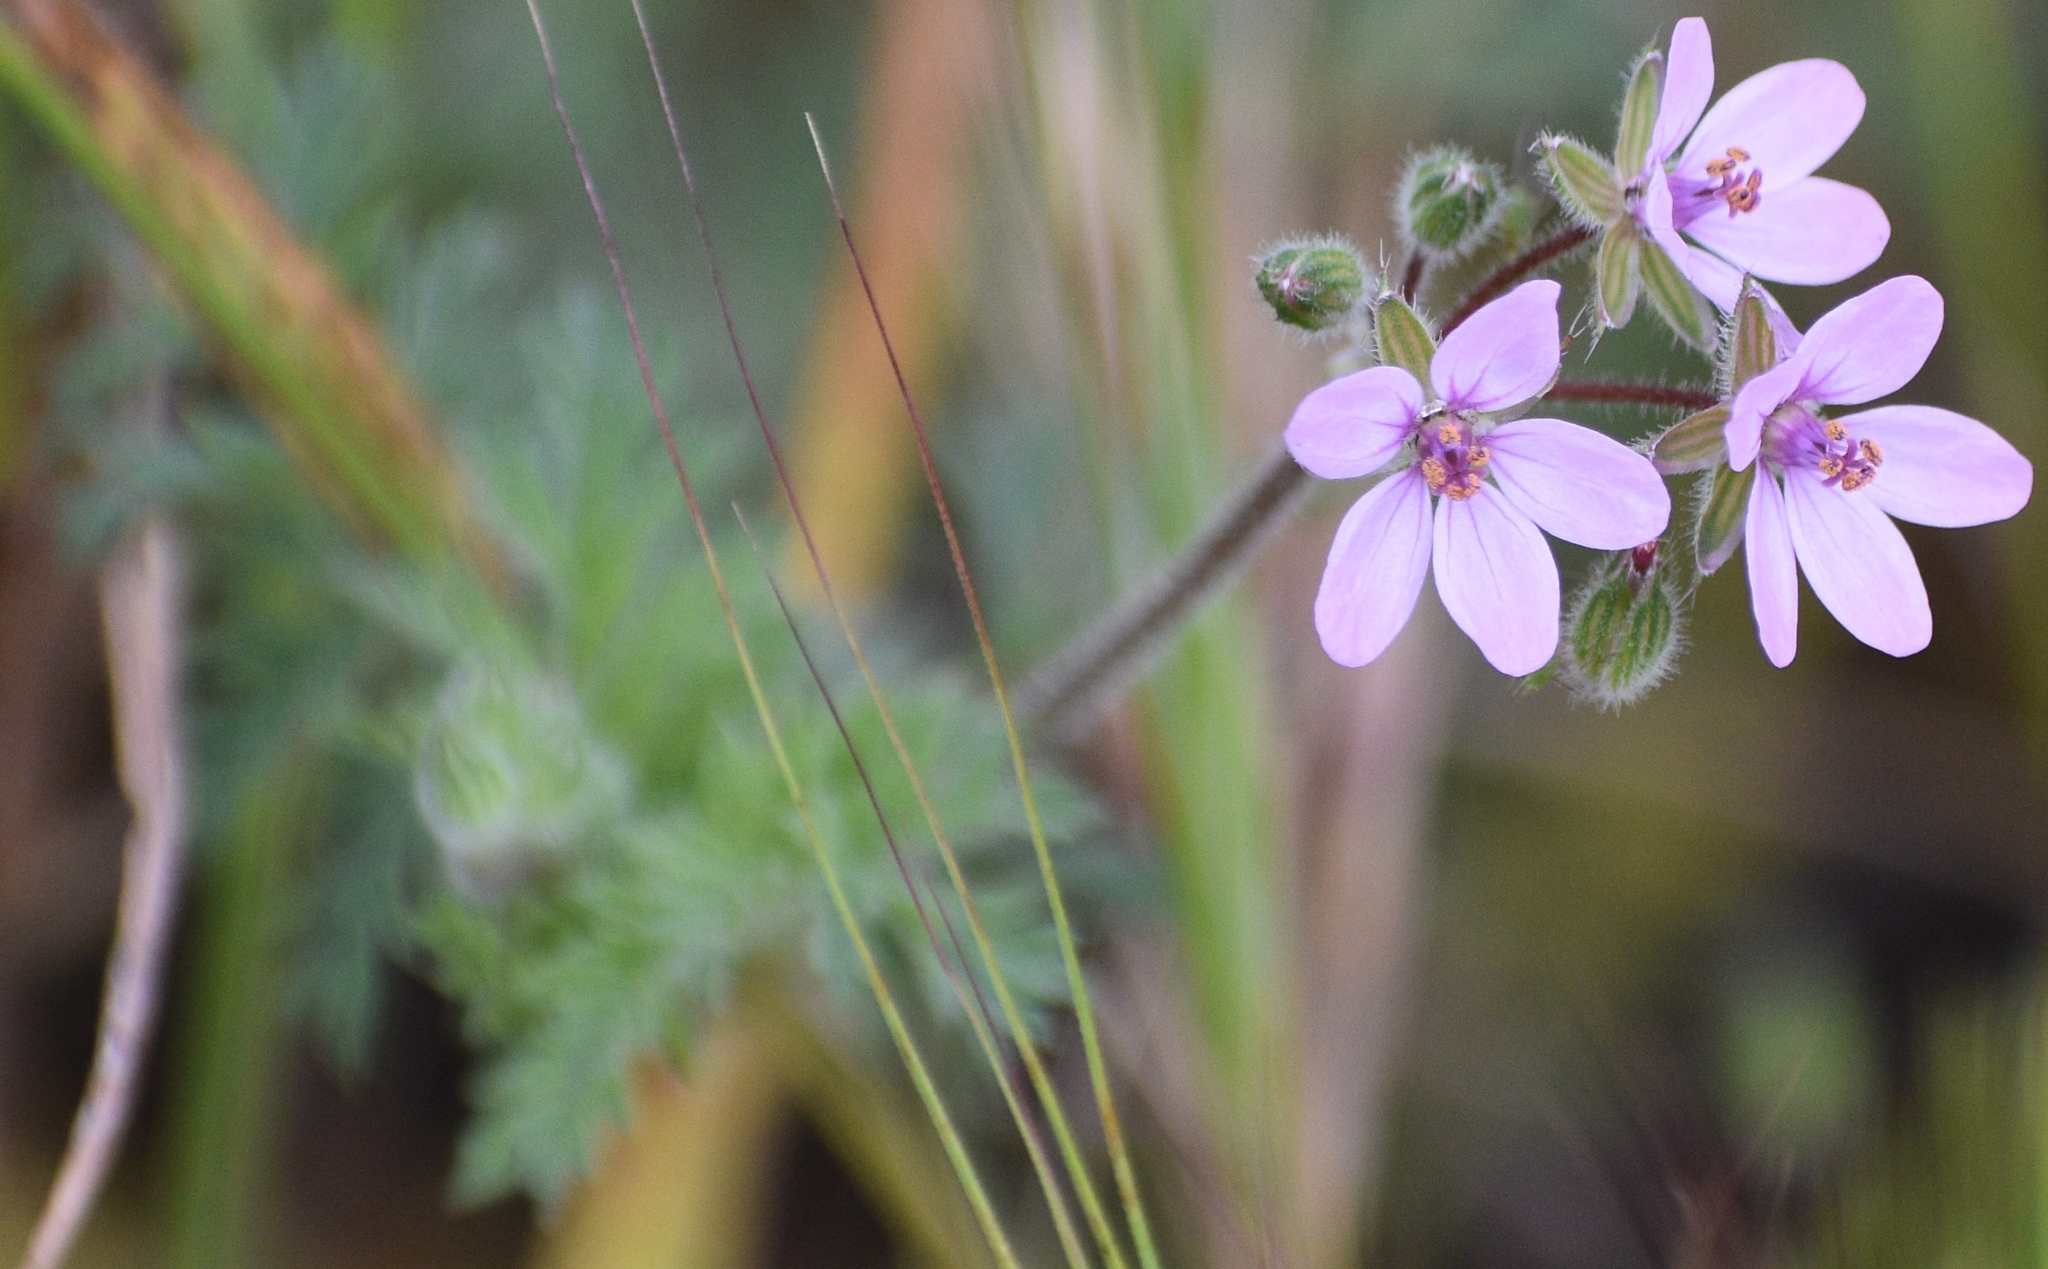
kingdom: Plantae
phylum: Tracheophyta
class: Magnoliopsida
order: Geraniales
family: Geraniaceae
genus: Erodium
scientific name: Erodium cicutarium
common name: Common stork's-bill
